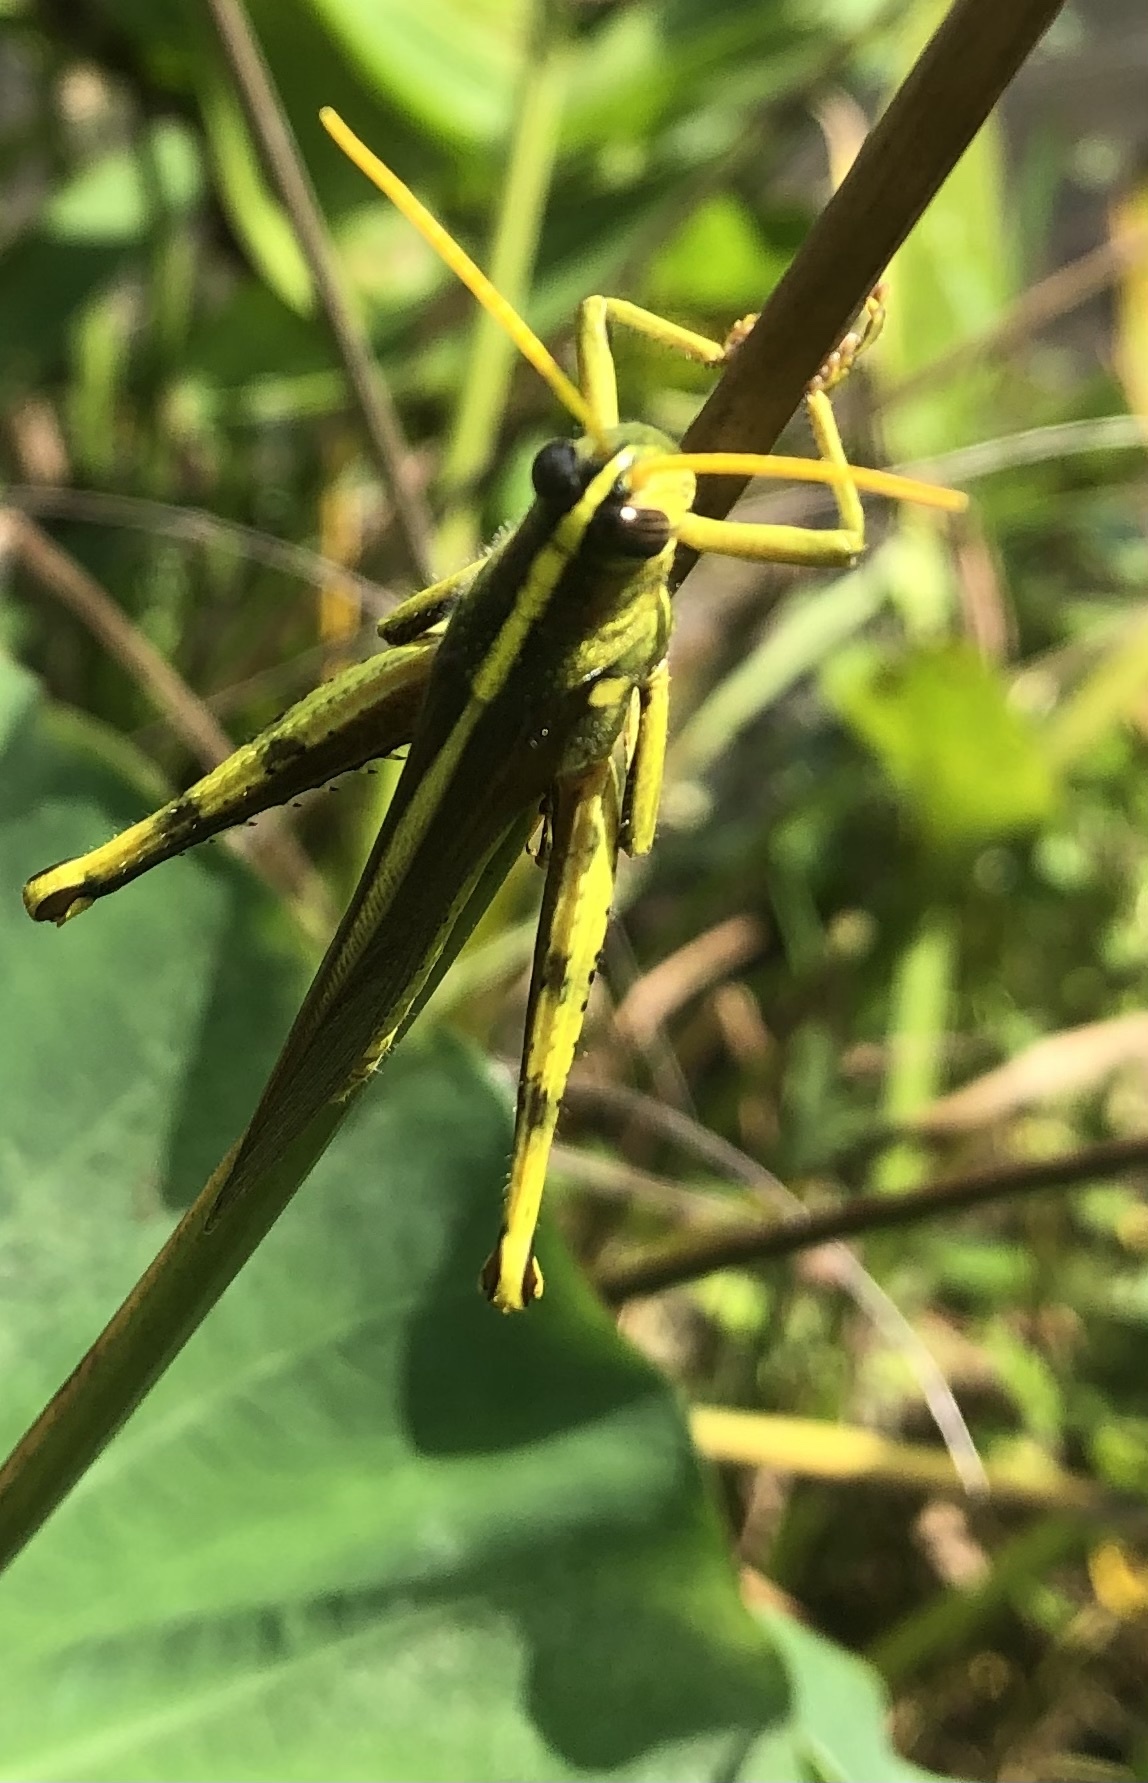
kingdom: Animalia
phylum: Arthropoda
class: Insecta
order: Orthoptera
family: Acrididae
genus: Schistocerca
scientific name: Schistocerca obscura
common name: Obscure bird grasshopper
